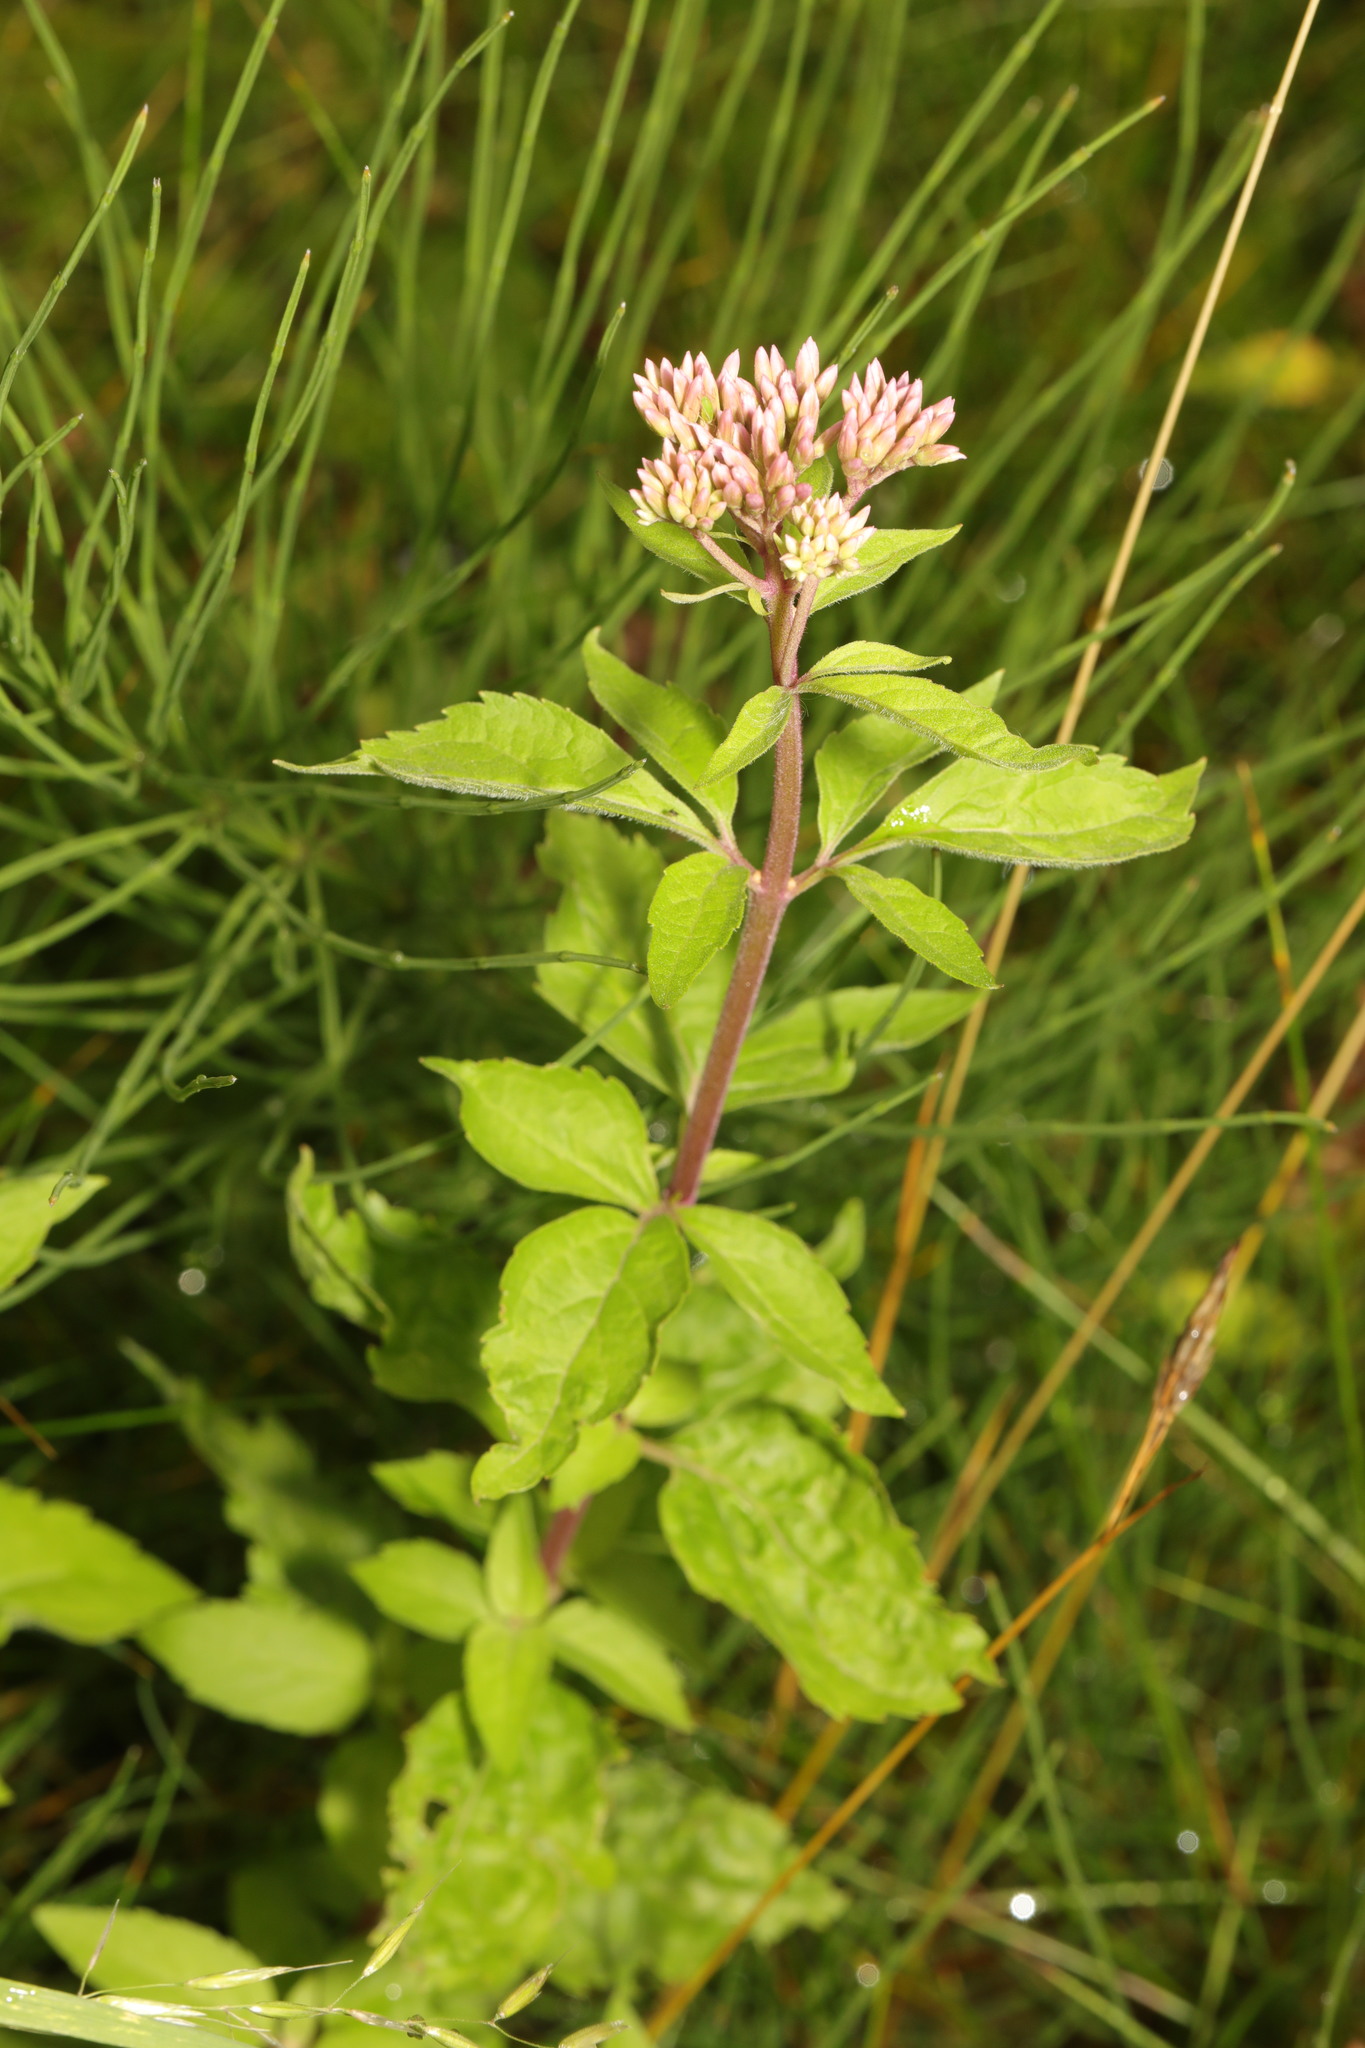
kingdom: Plantae
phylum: Tracheophyta
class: Magnoliopsida
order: Asterales
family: Asteraceae
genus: Eupatorium
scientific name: Eupatorium cannabinum
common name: Hemp-agrimony
